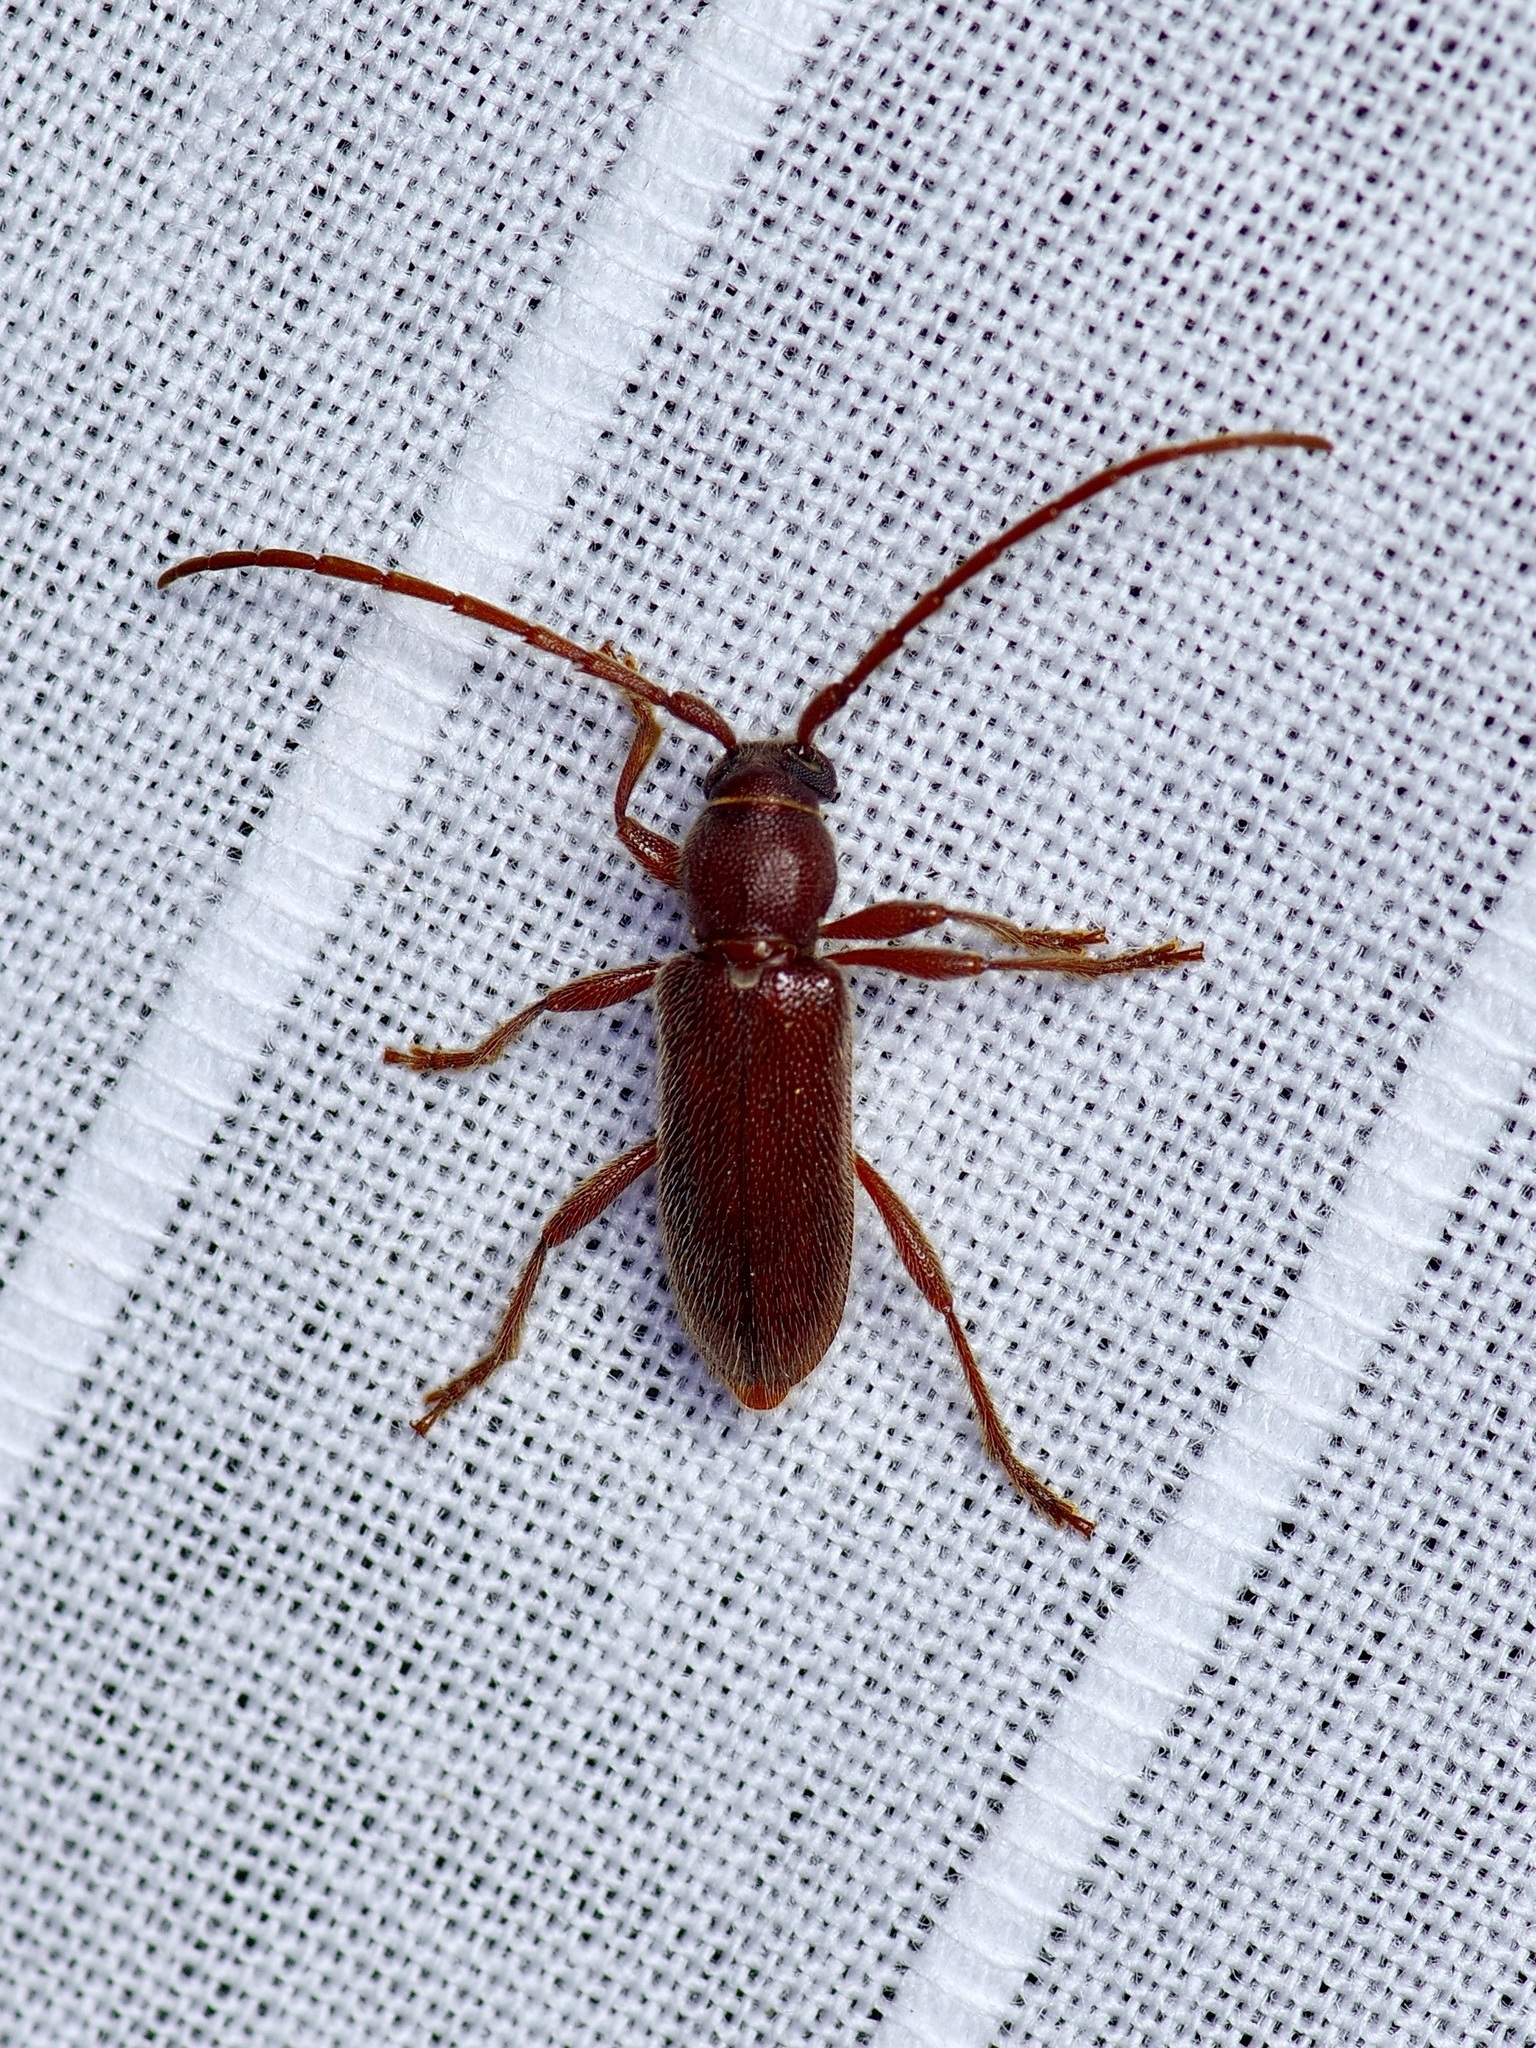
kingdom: Animalia
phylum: Arthropoda
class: Insecta
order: Coleoptera
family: Cerambycidae
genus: Anelaphus
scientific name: Anelaphus moestus
